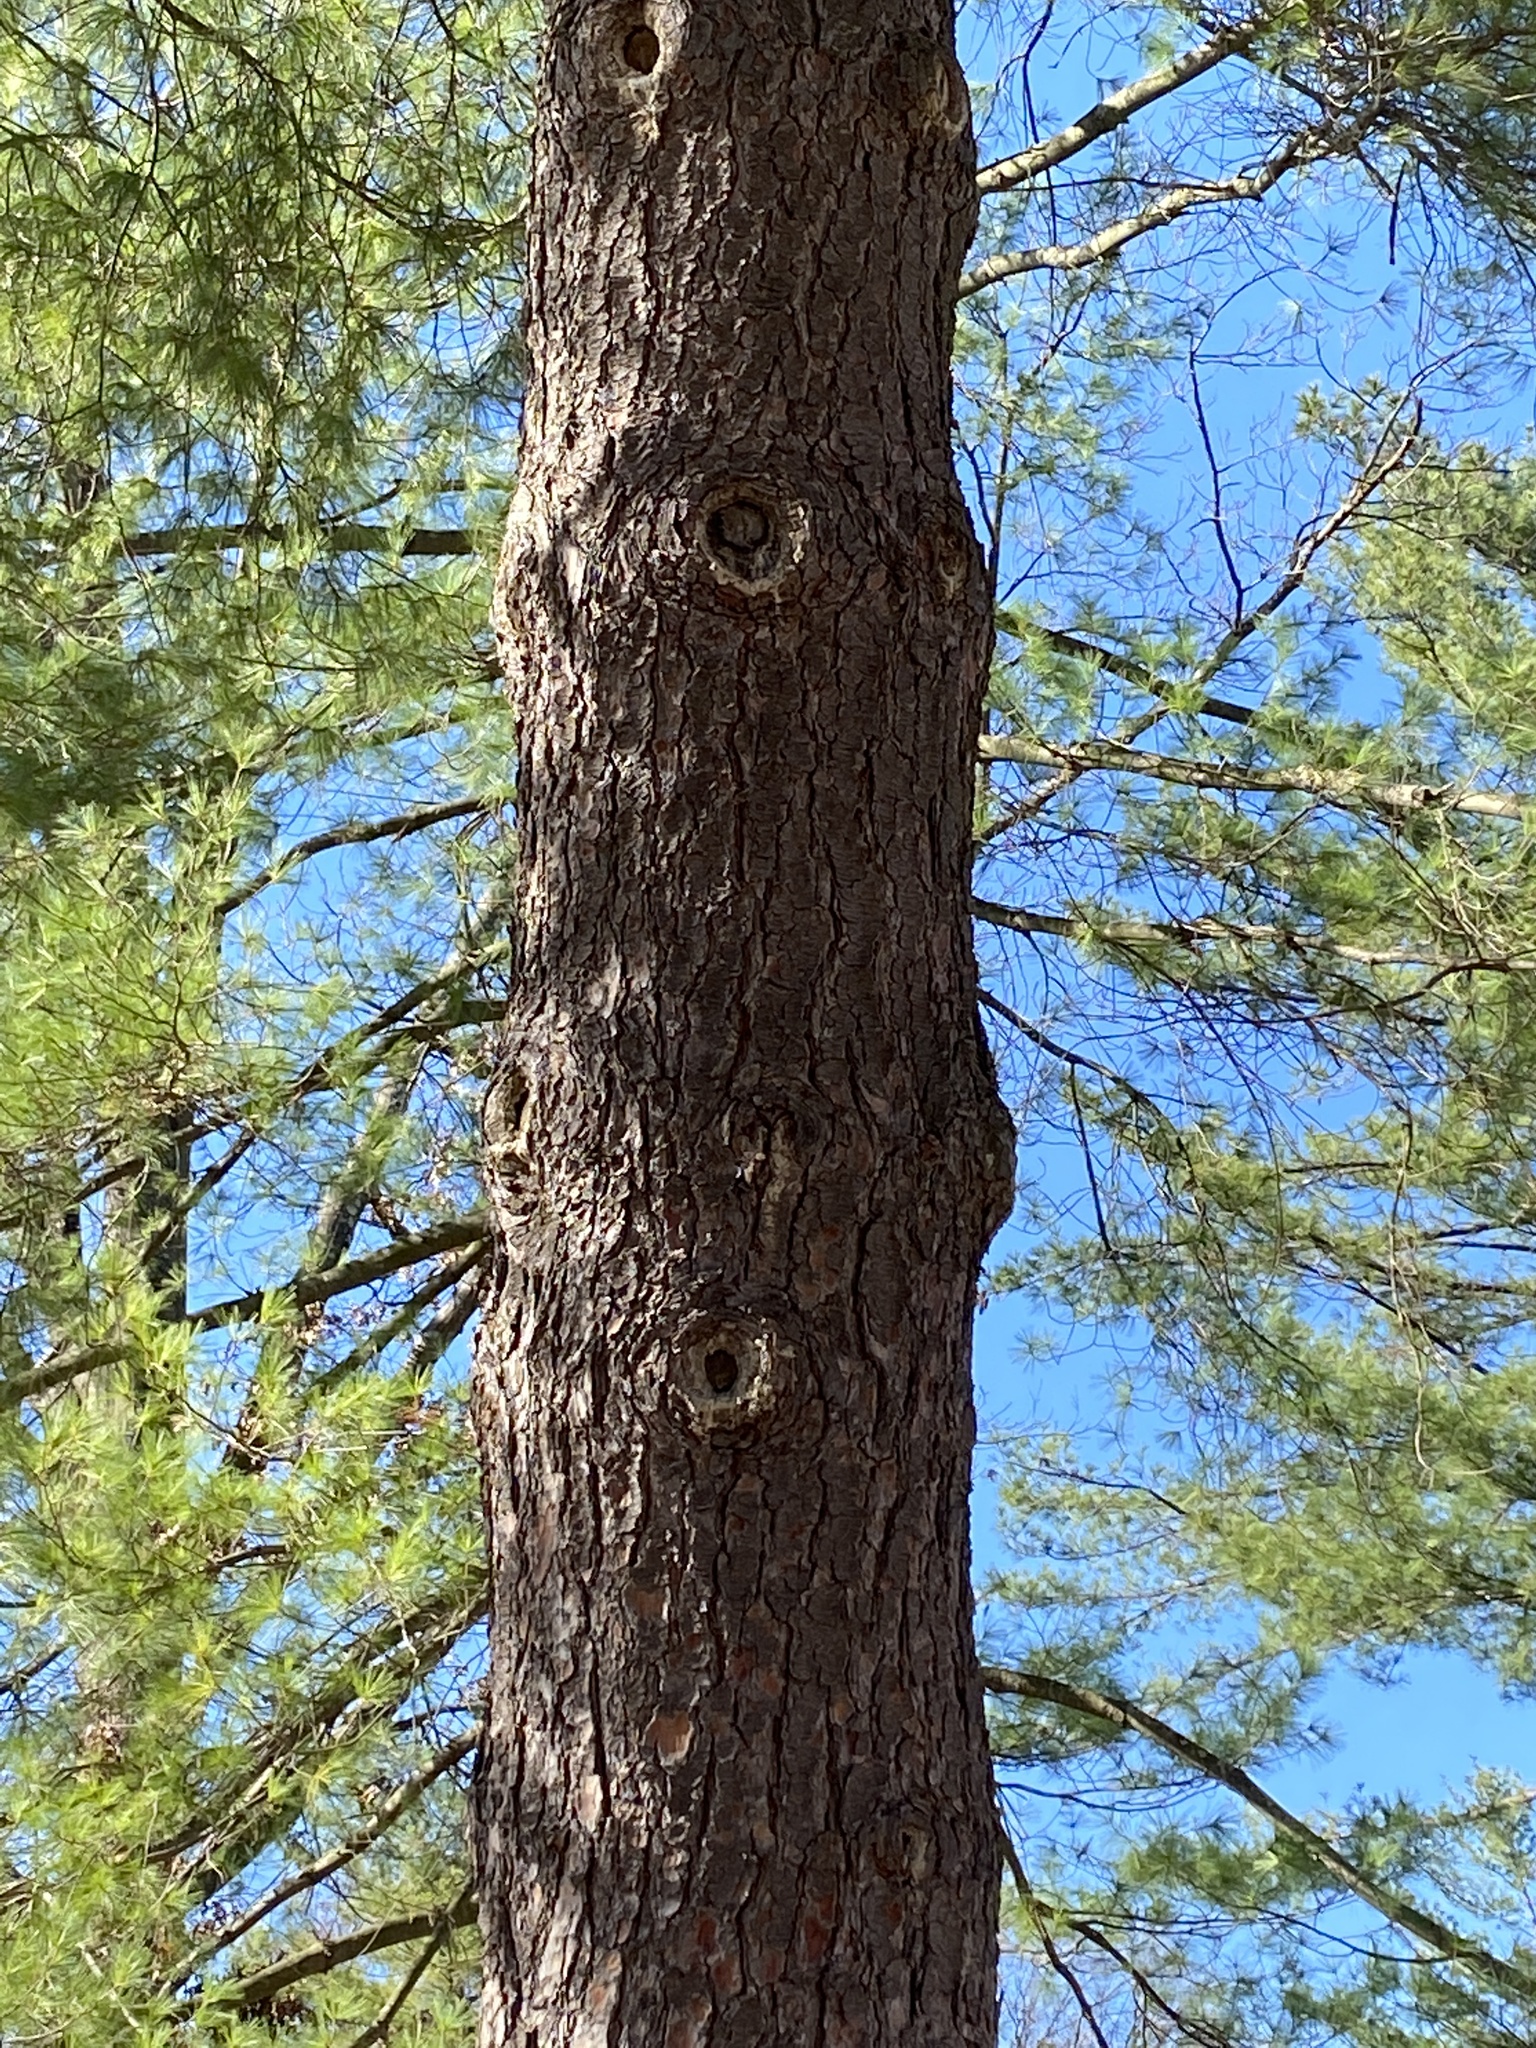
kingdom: Plantae
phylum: Tracheophyta
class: Pinopsida
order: Pinales
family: Pinaceae
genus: Pinus
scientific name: Pinus strobus
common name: Weymouth pine
